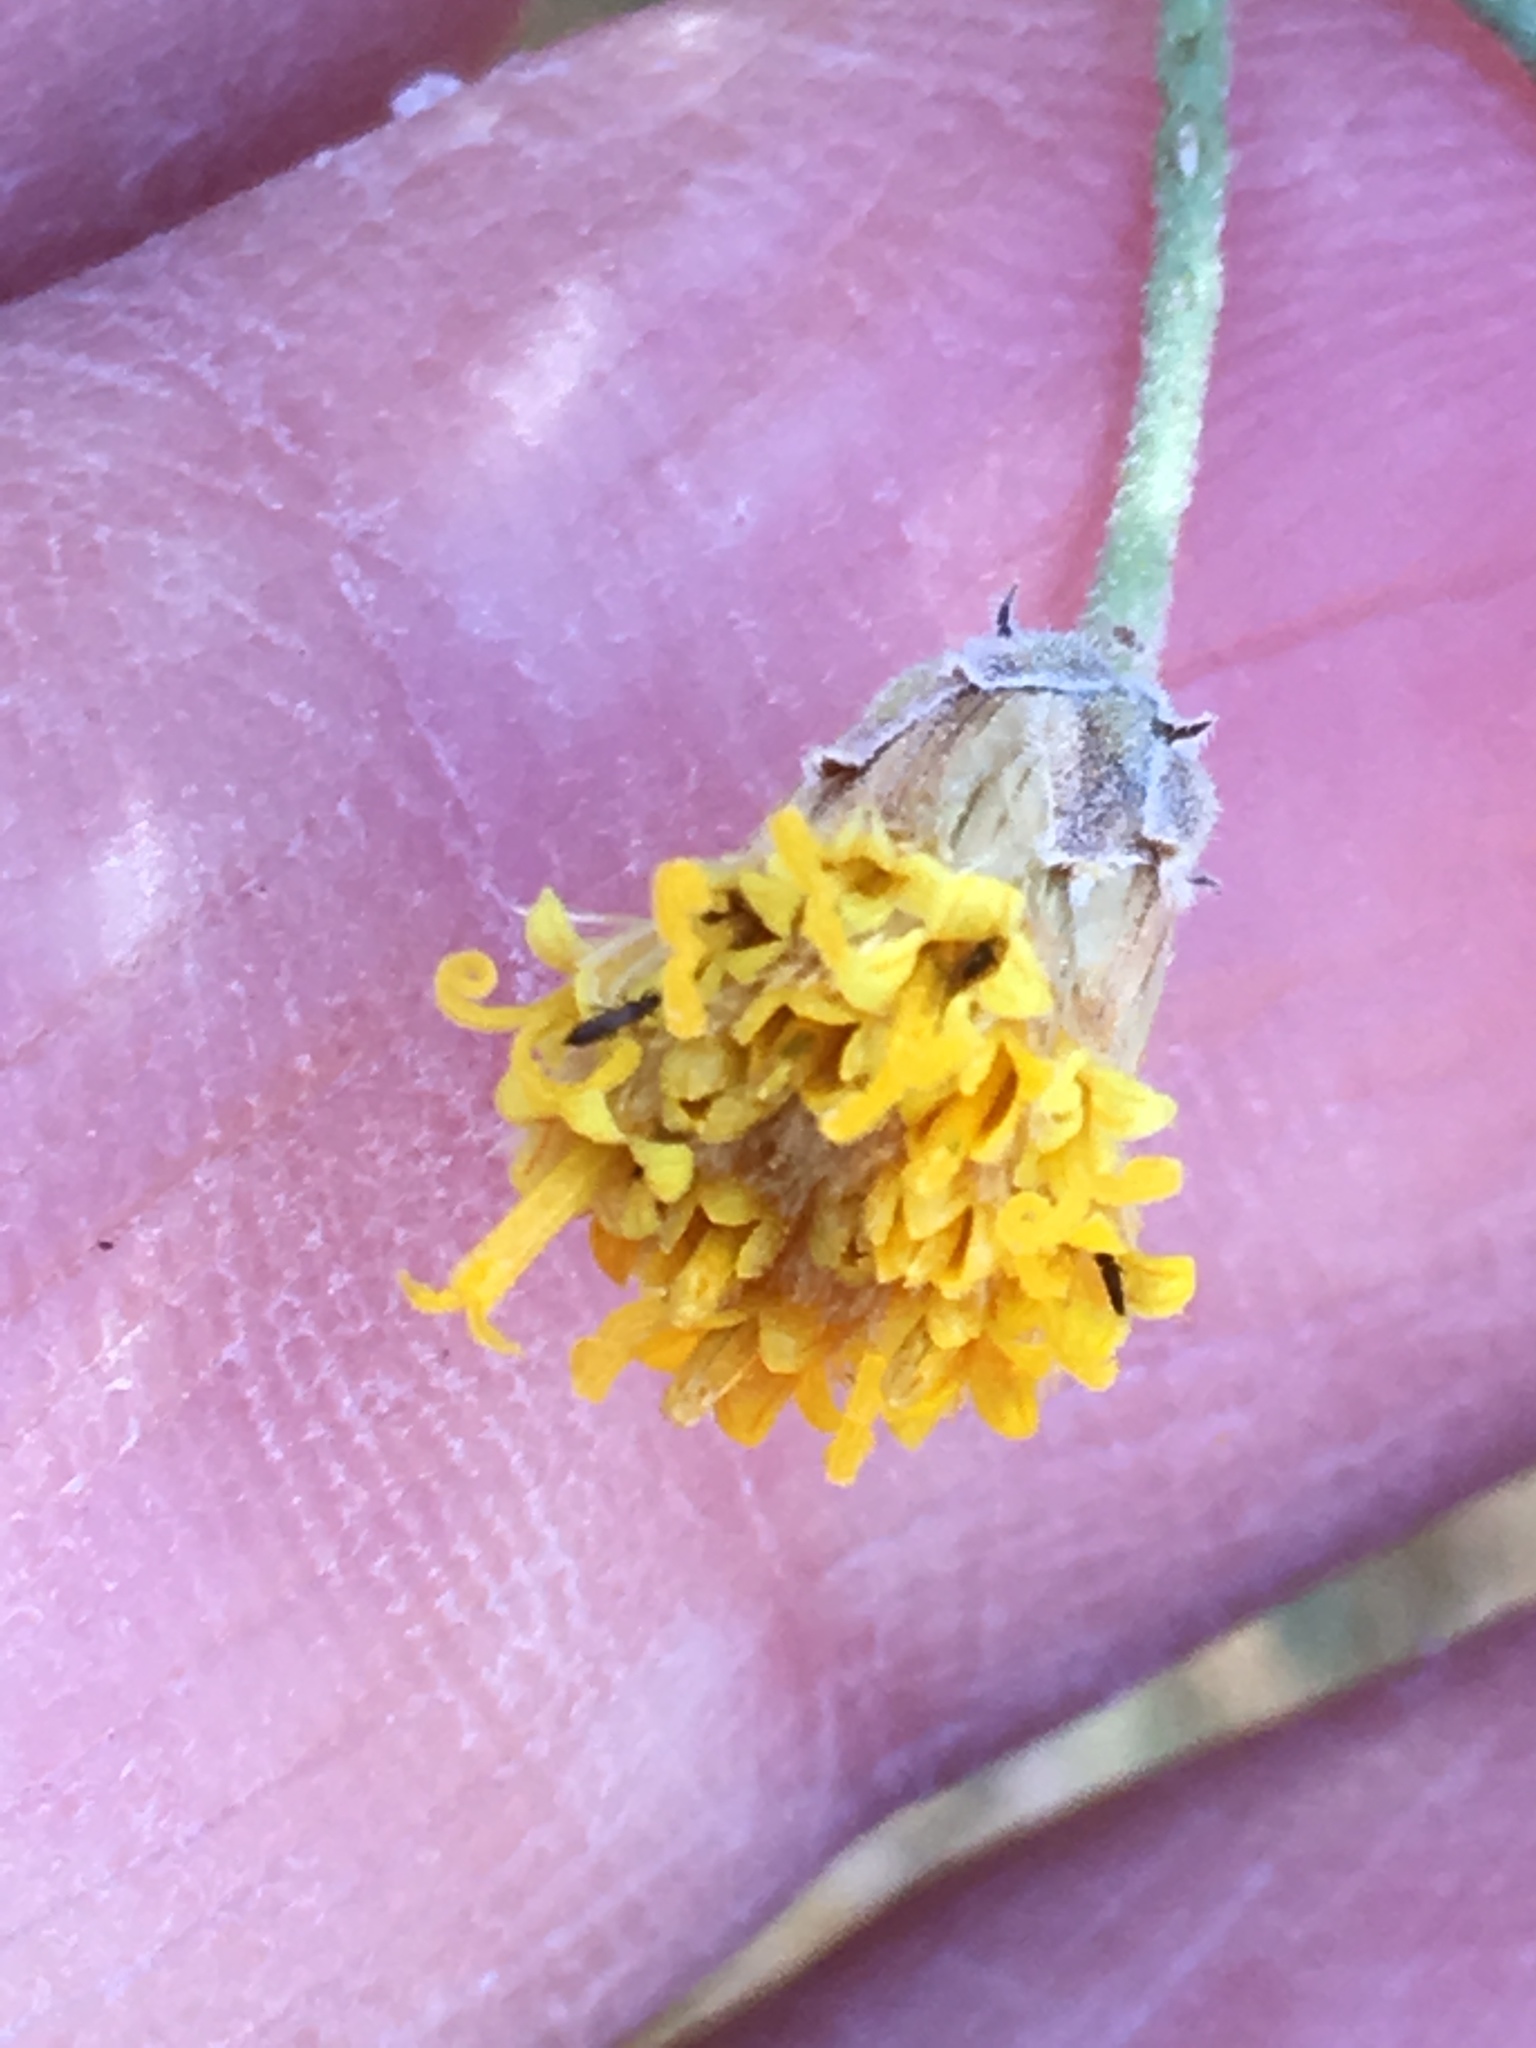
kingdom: Plantae
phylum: Tracheophyta
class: Magnoliopsida
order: Asterales
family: Asteraceae
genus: Bebbia
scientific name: Bebbia juncea
